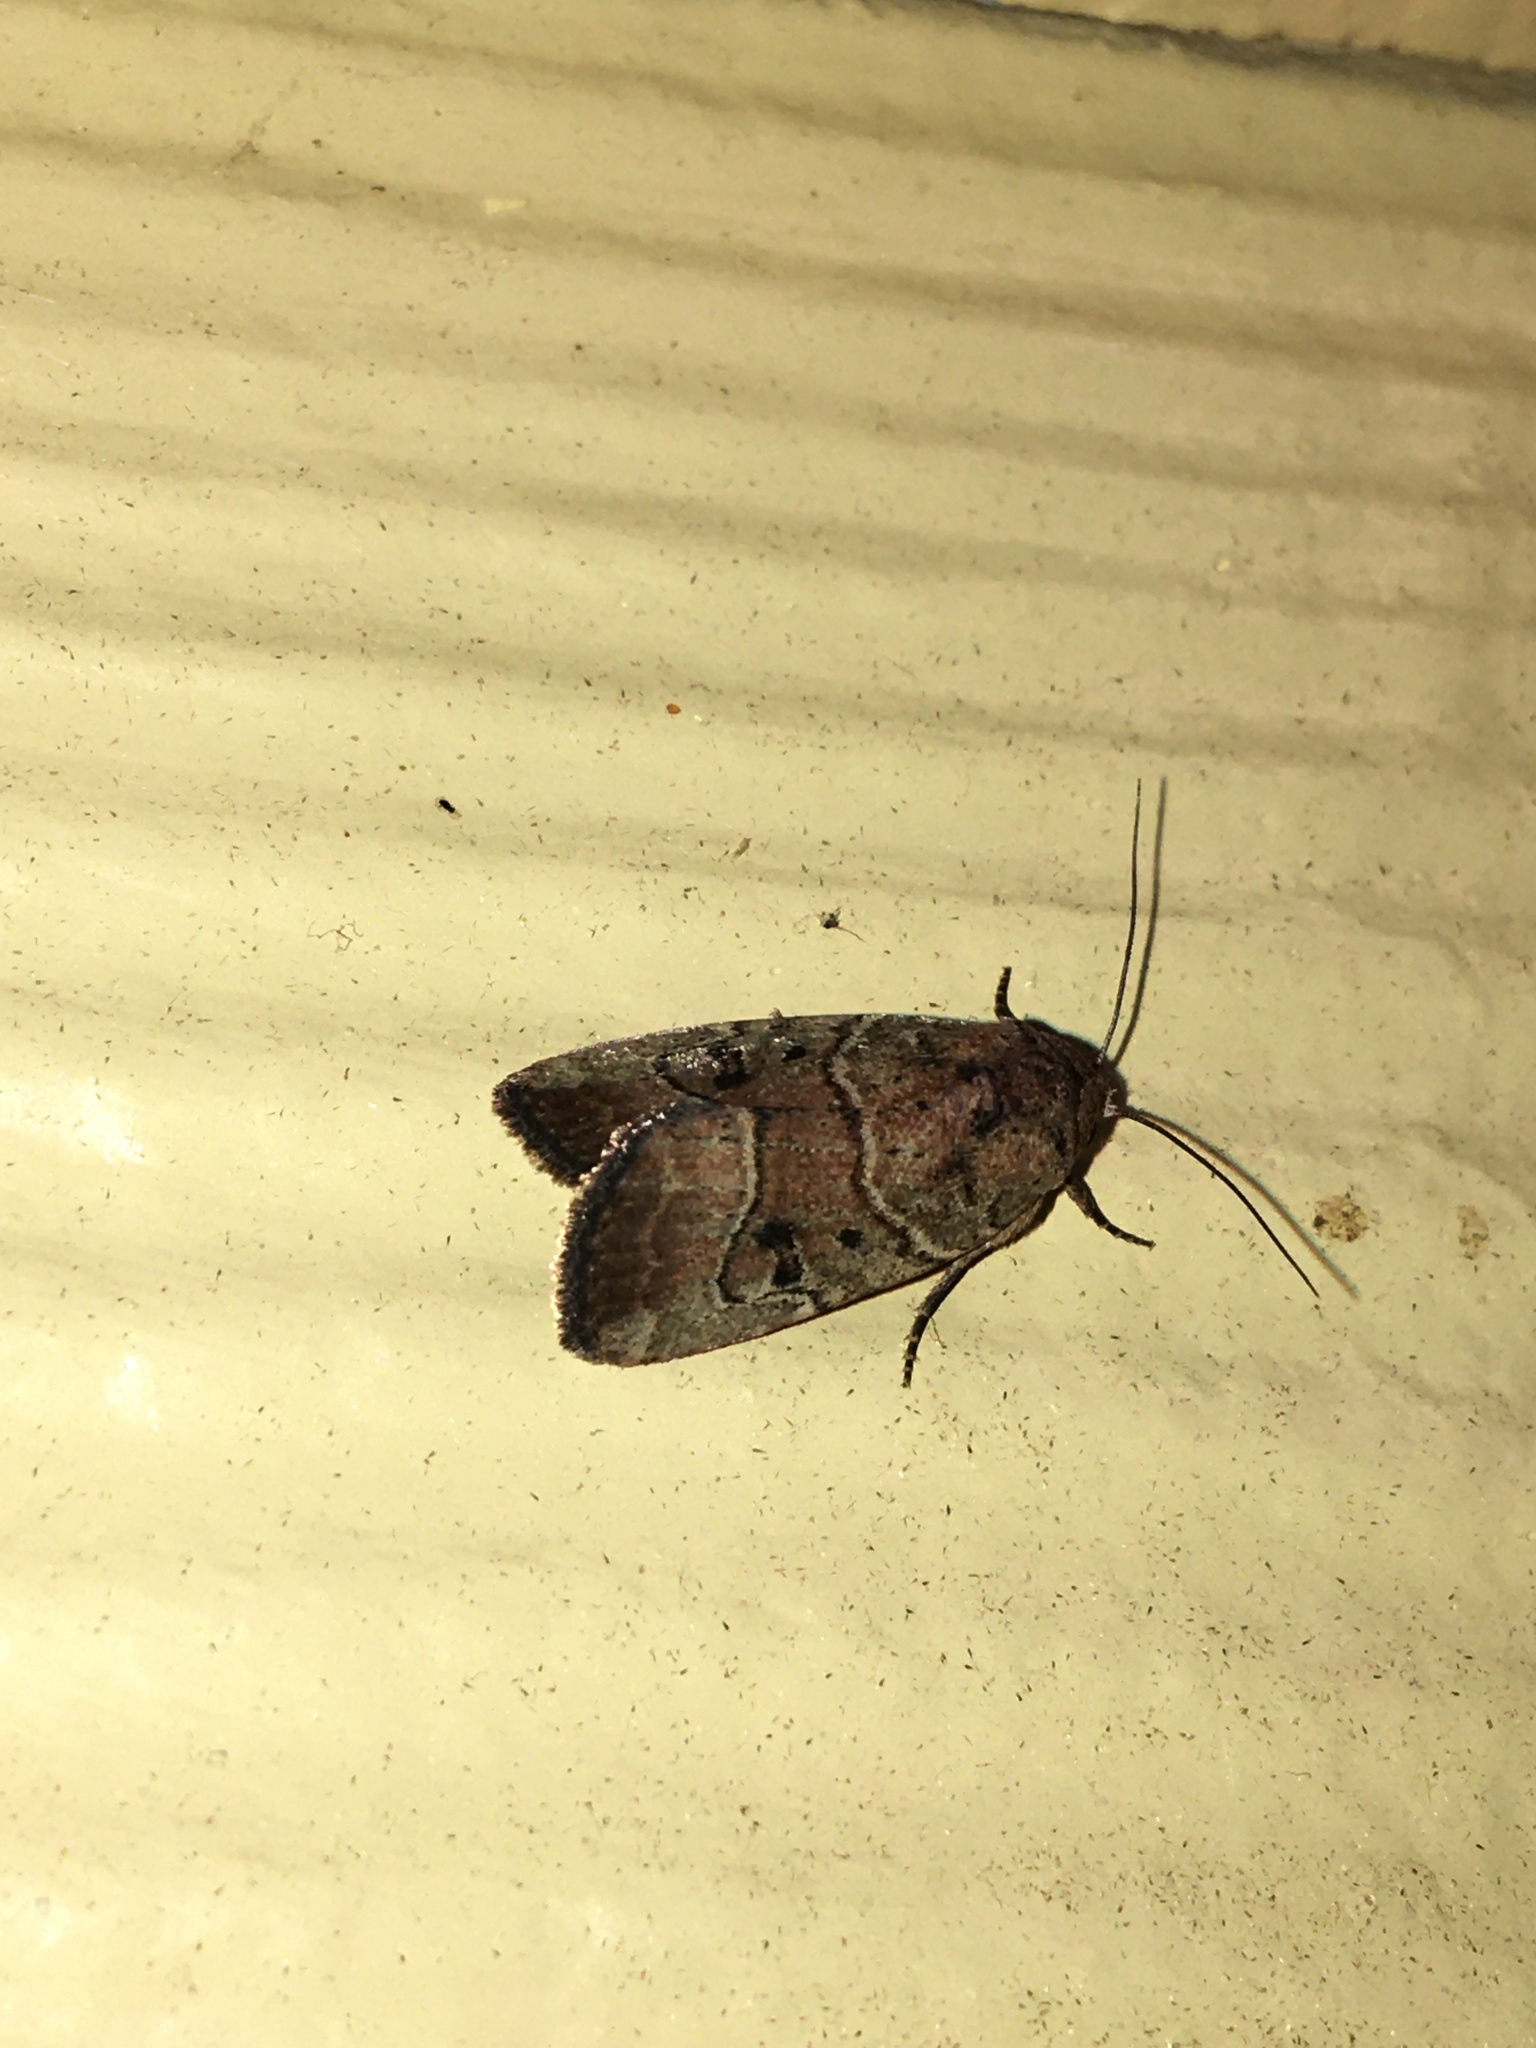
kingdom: Animalia
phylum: Arthropoda
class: Insecta
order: Lepidoptera
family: Noctuidae
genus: Elaphria
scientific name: Elaphria fuscimacula
